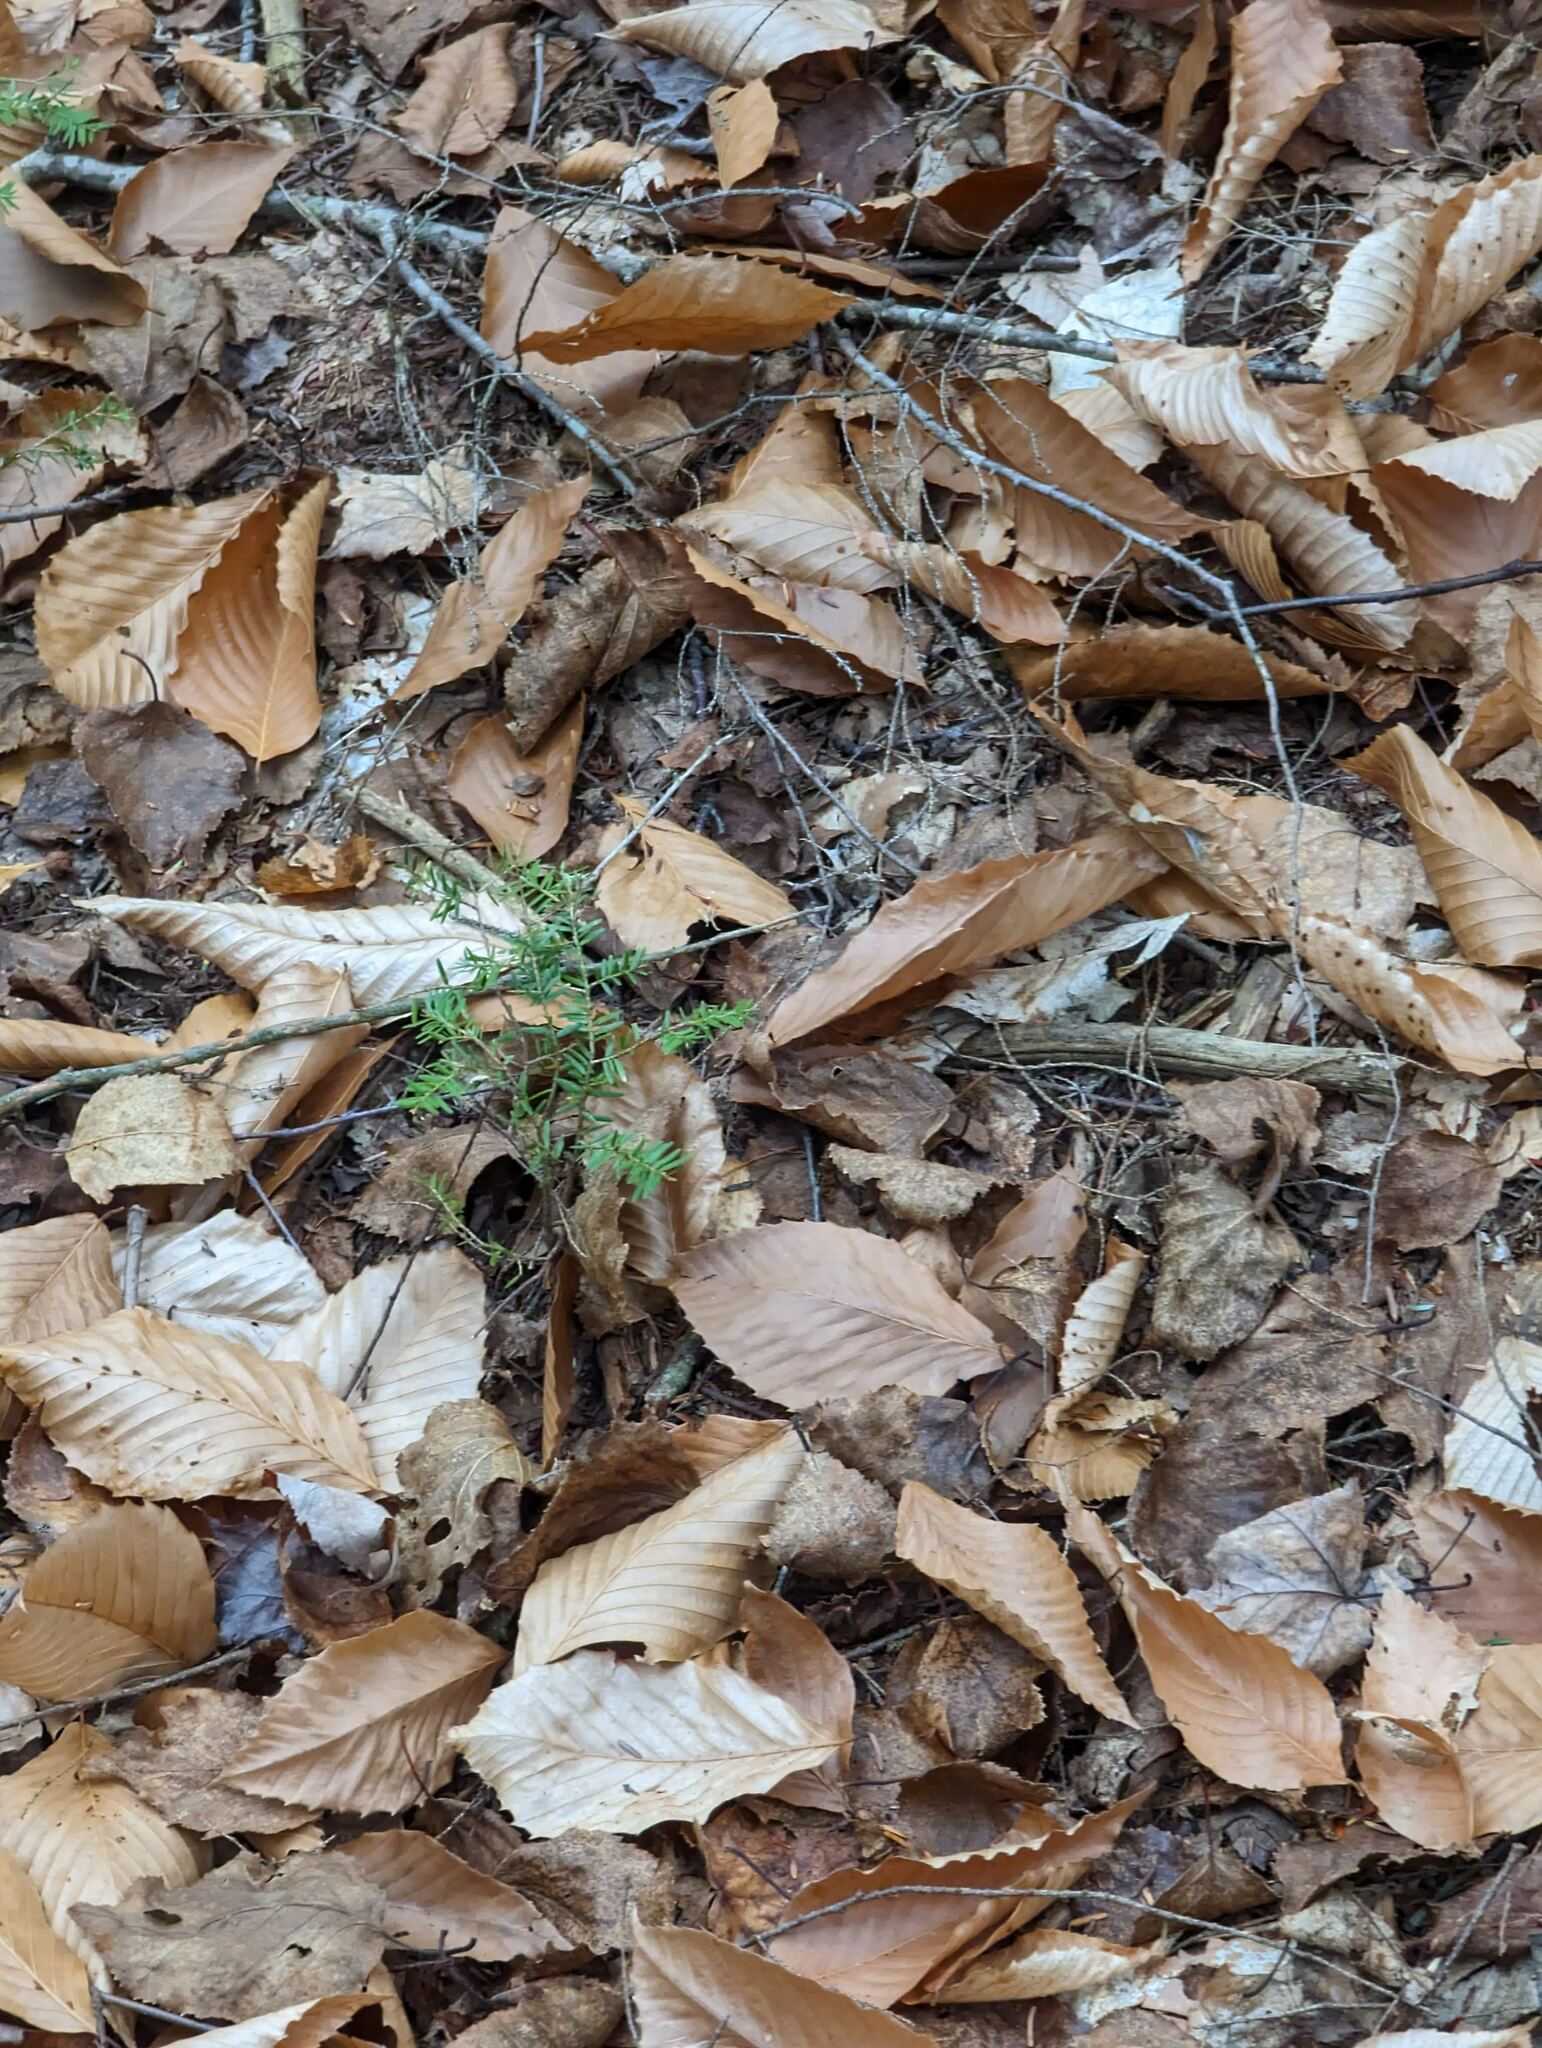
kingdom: Plantae
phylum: Tracheophyta
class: Pinopsida
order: Pinales
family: Pinaceae
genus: Tsuga
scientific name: Tsuga canadensis
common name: Eastern hemlock
